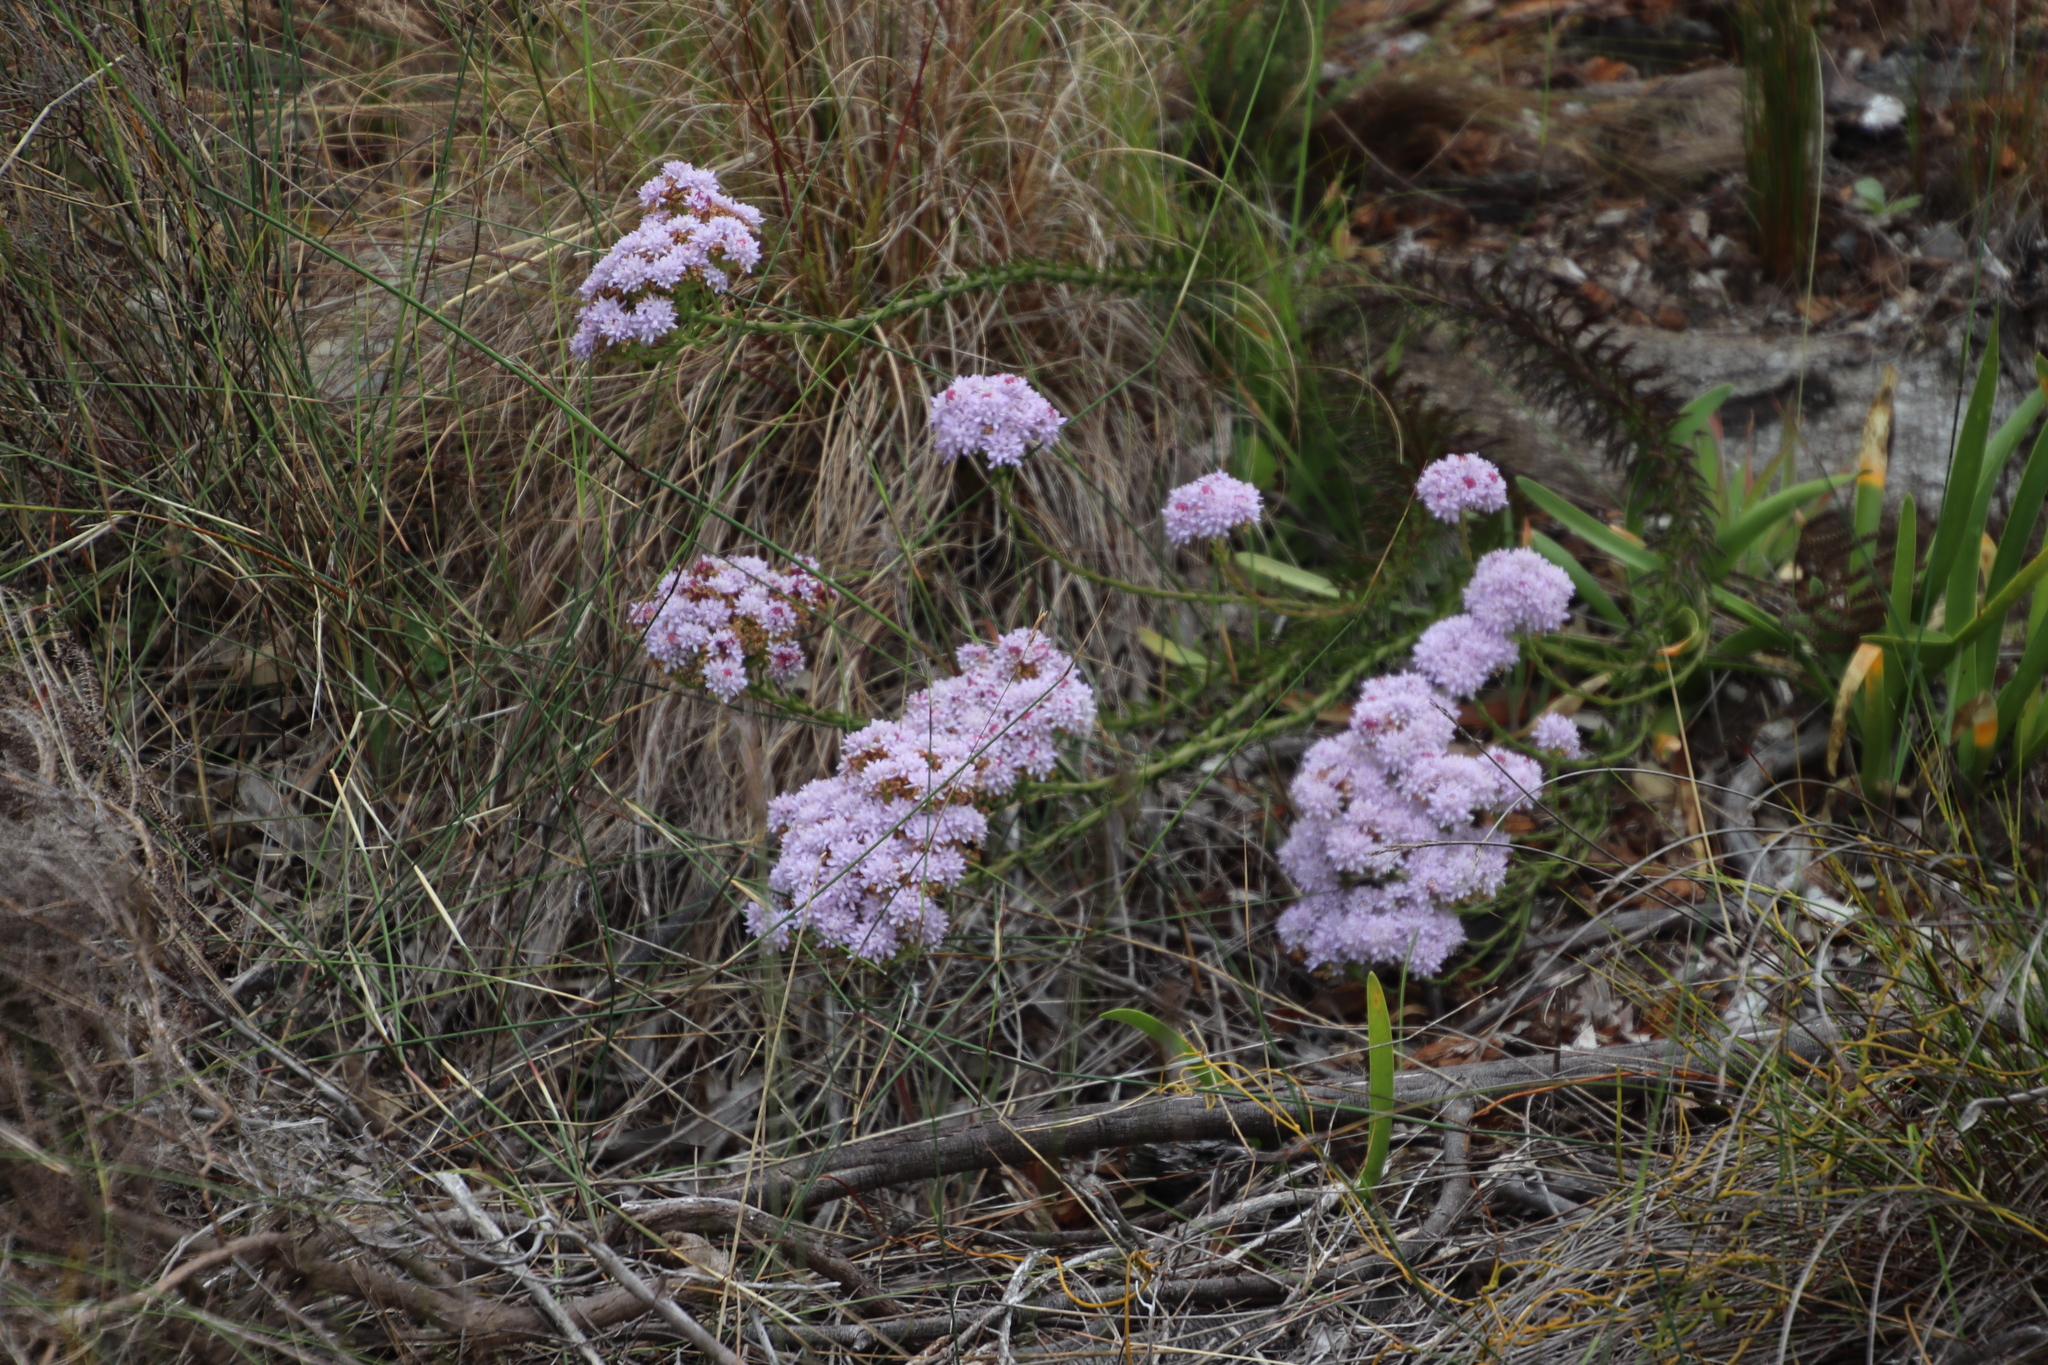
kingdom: Plantae
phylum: Tracheophyta
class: Magnoliopsida
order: Lamiales
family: Scrophulariaceae
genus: Pseudoselago
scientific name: Pseudoselago spuria
